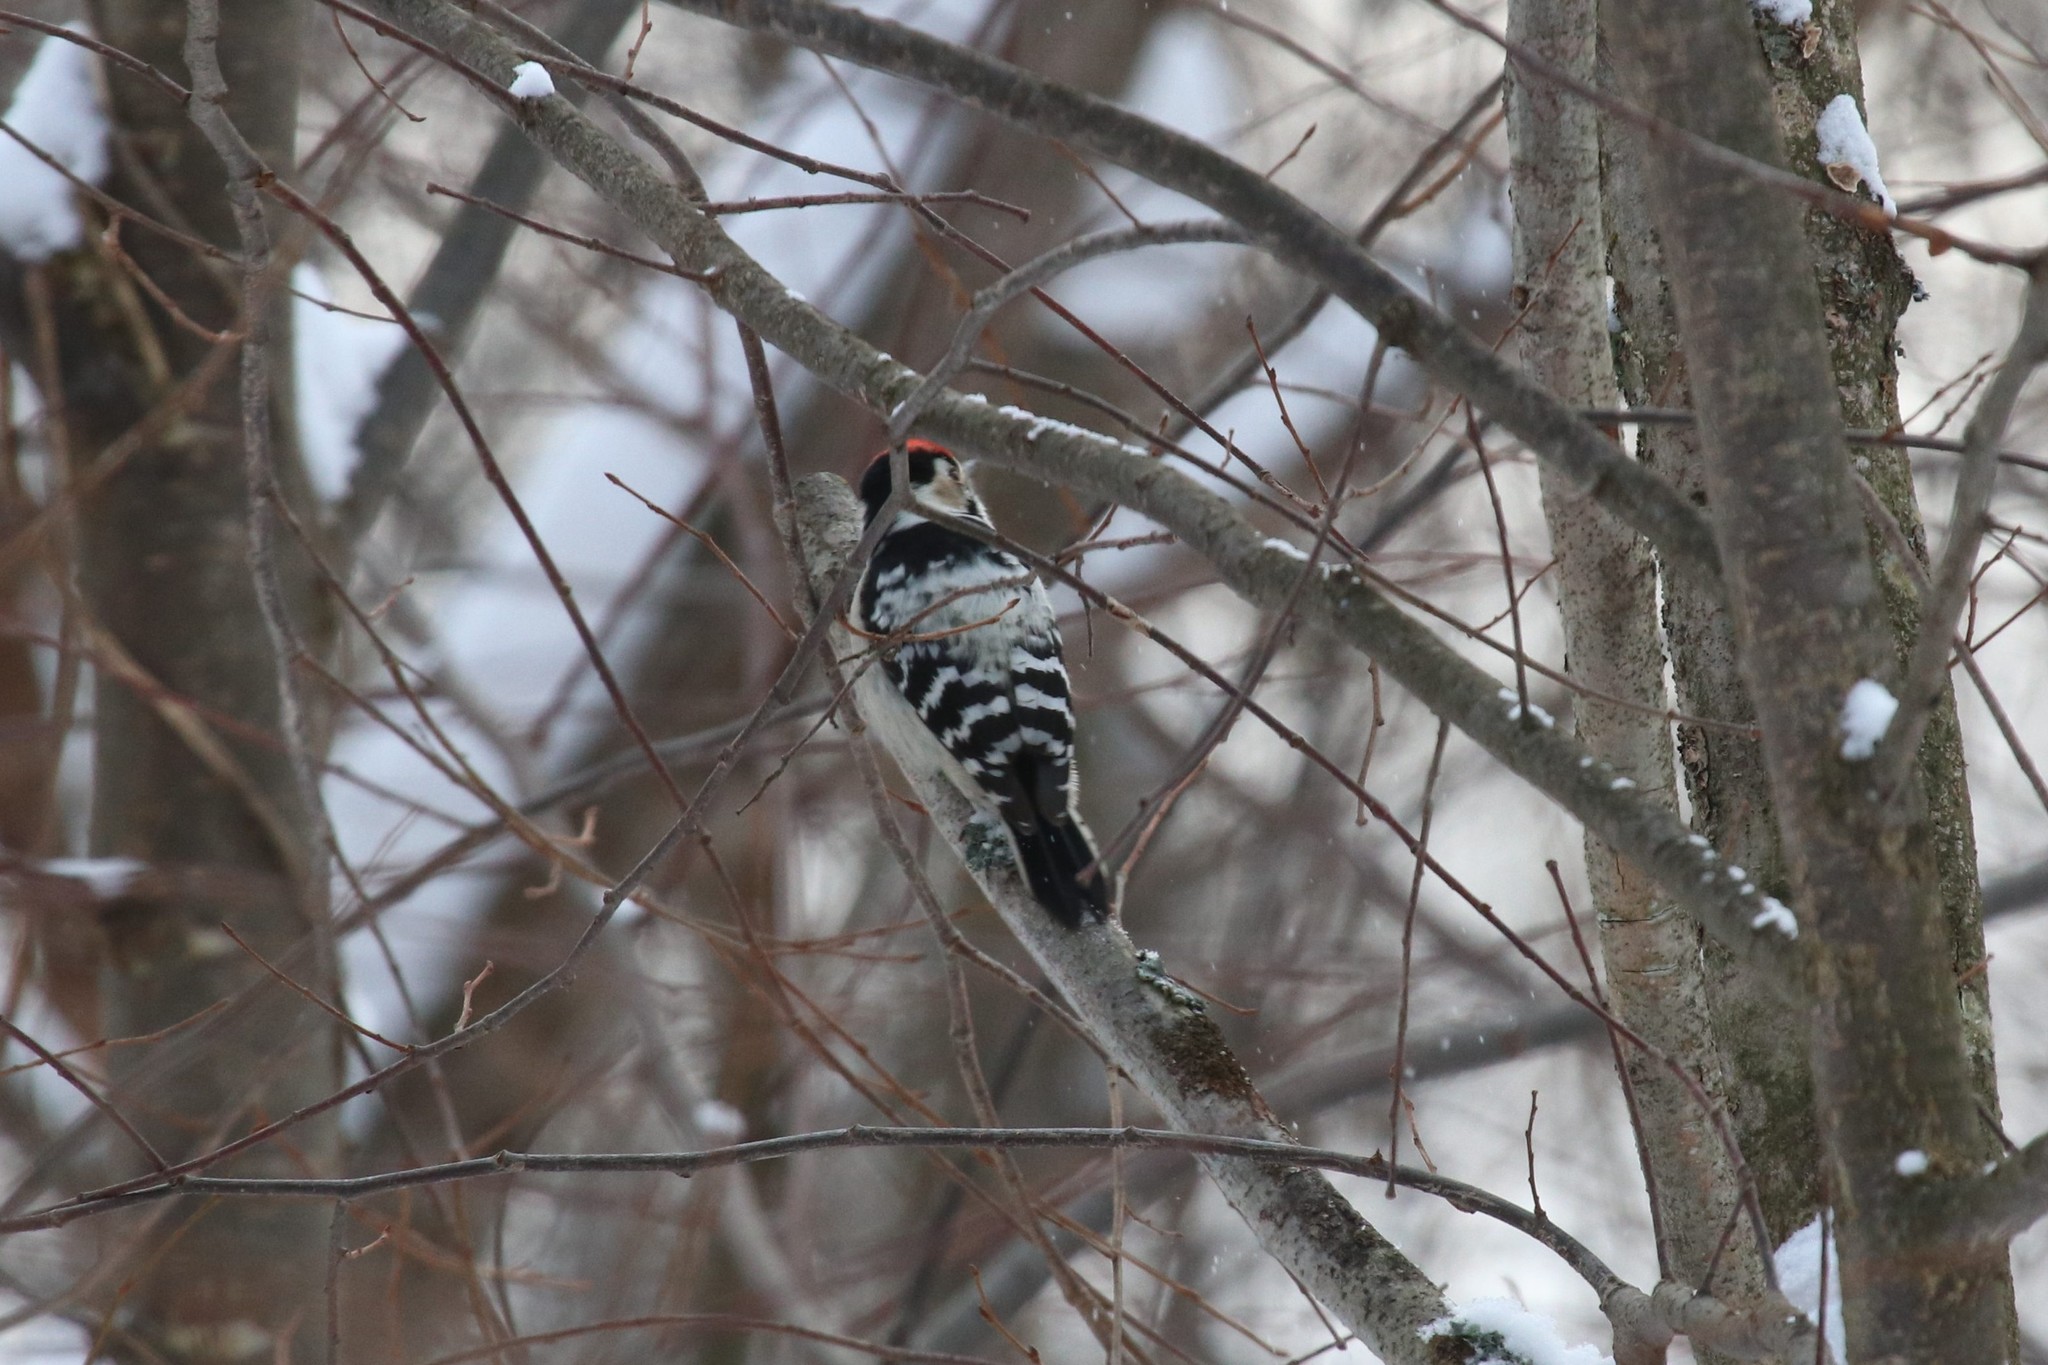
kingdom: Animalia
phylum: Chordata
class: Aves
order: Piciformes
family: Picidae
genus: Dryobates
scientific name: Dryobates minor
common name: Lesser spotted woodpecker
